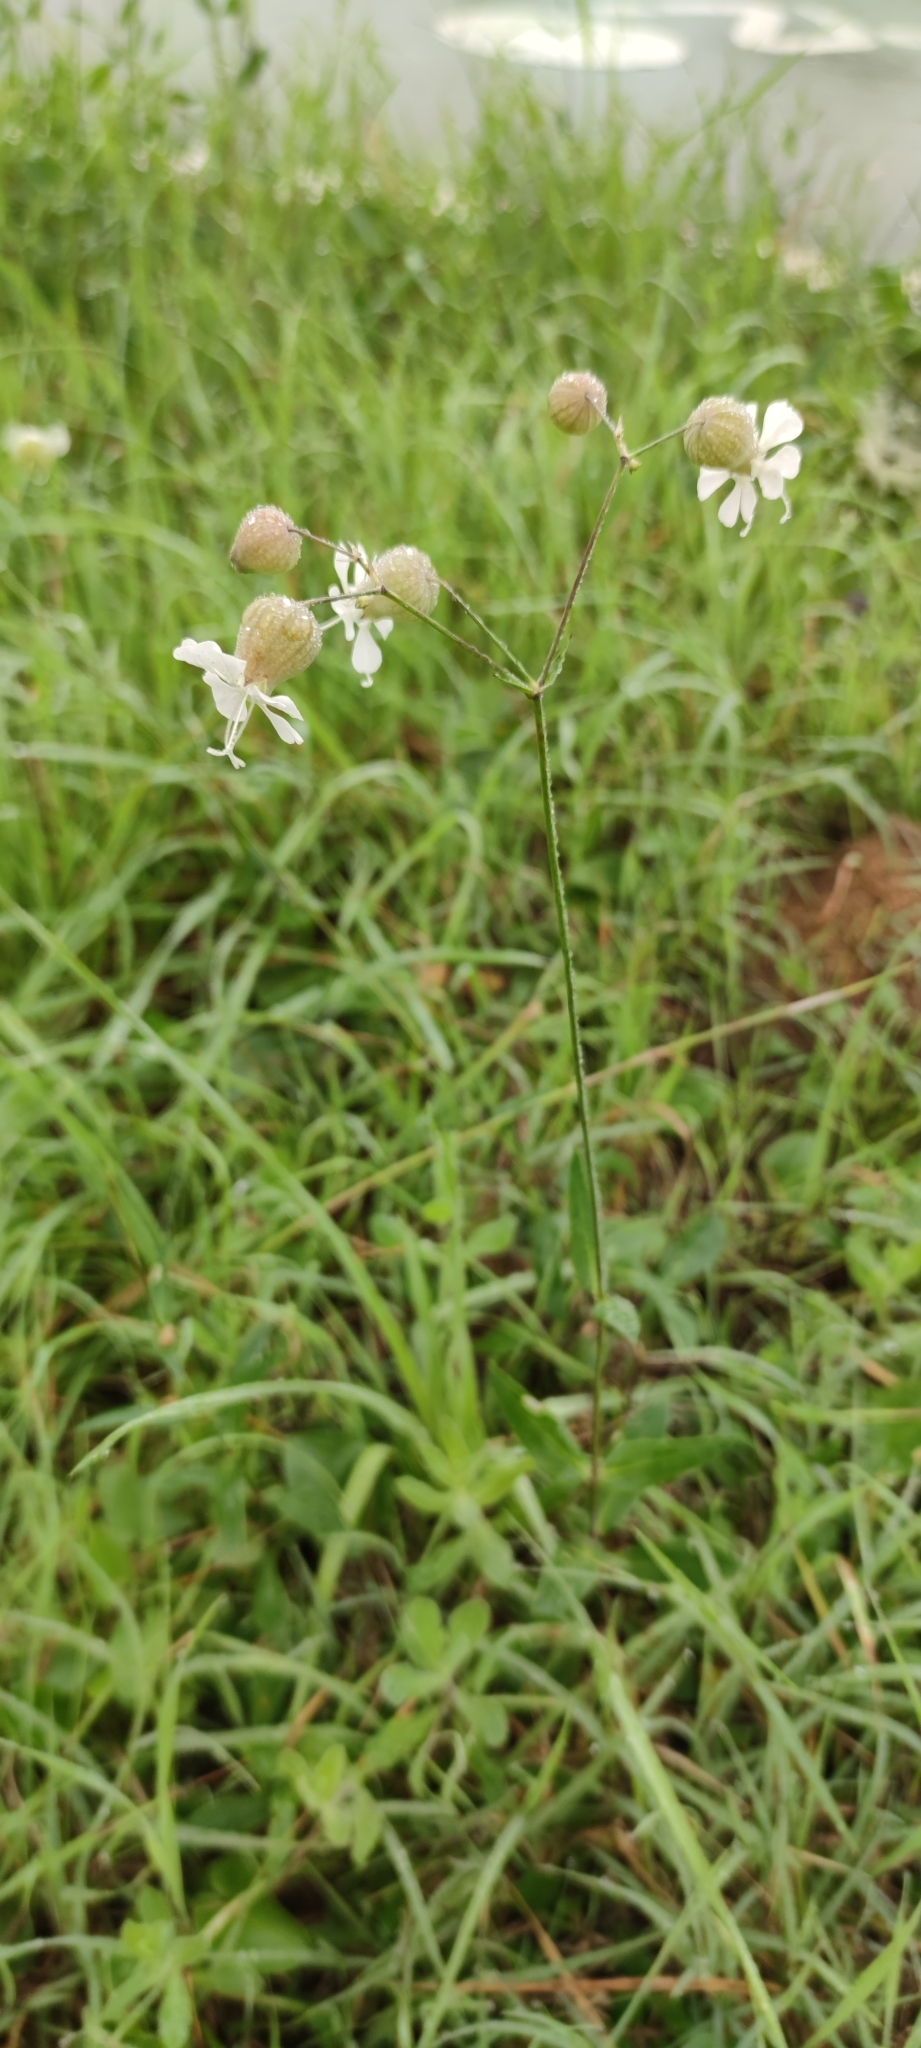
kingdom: Plantae
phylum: Tracheophyta
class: Magnoliopsida
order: Caryophyllales
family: Caryophyllaceae
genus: Silene
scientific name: Silene vulgaris
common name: Bladder campion
